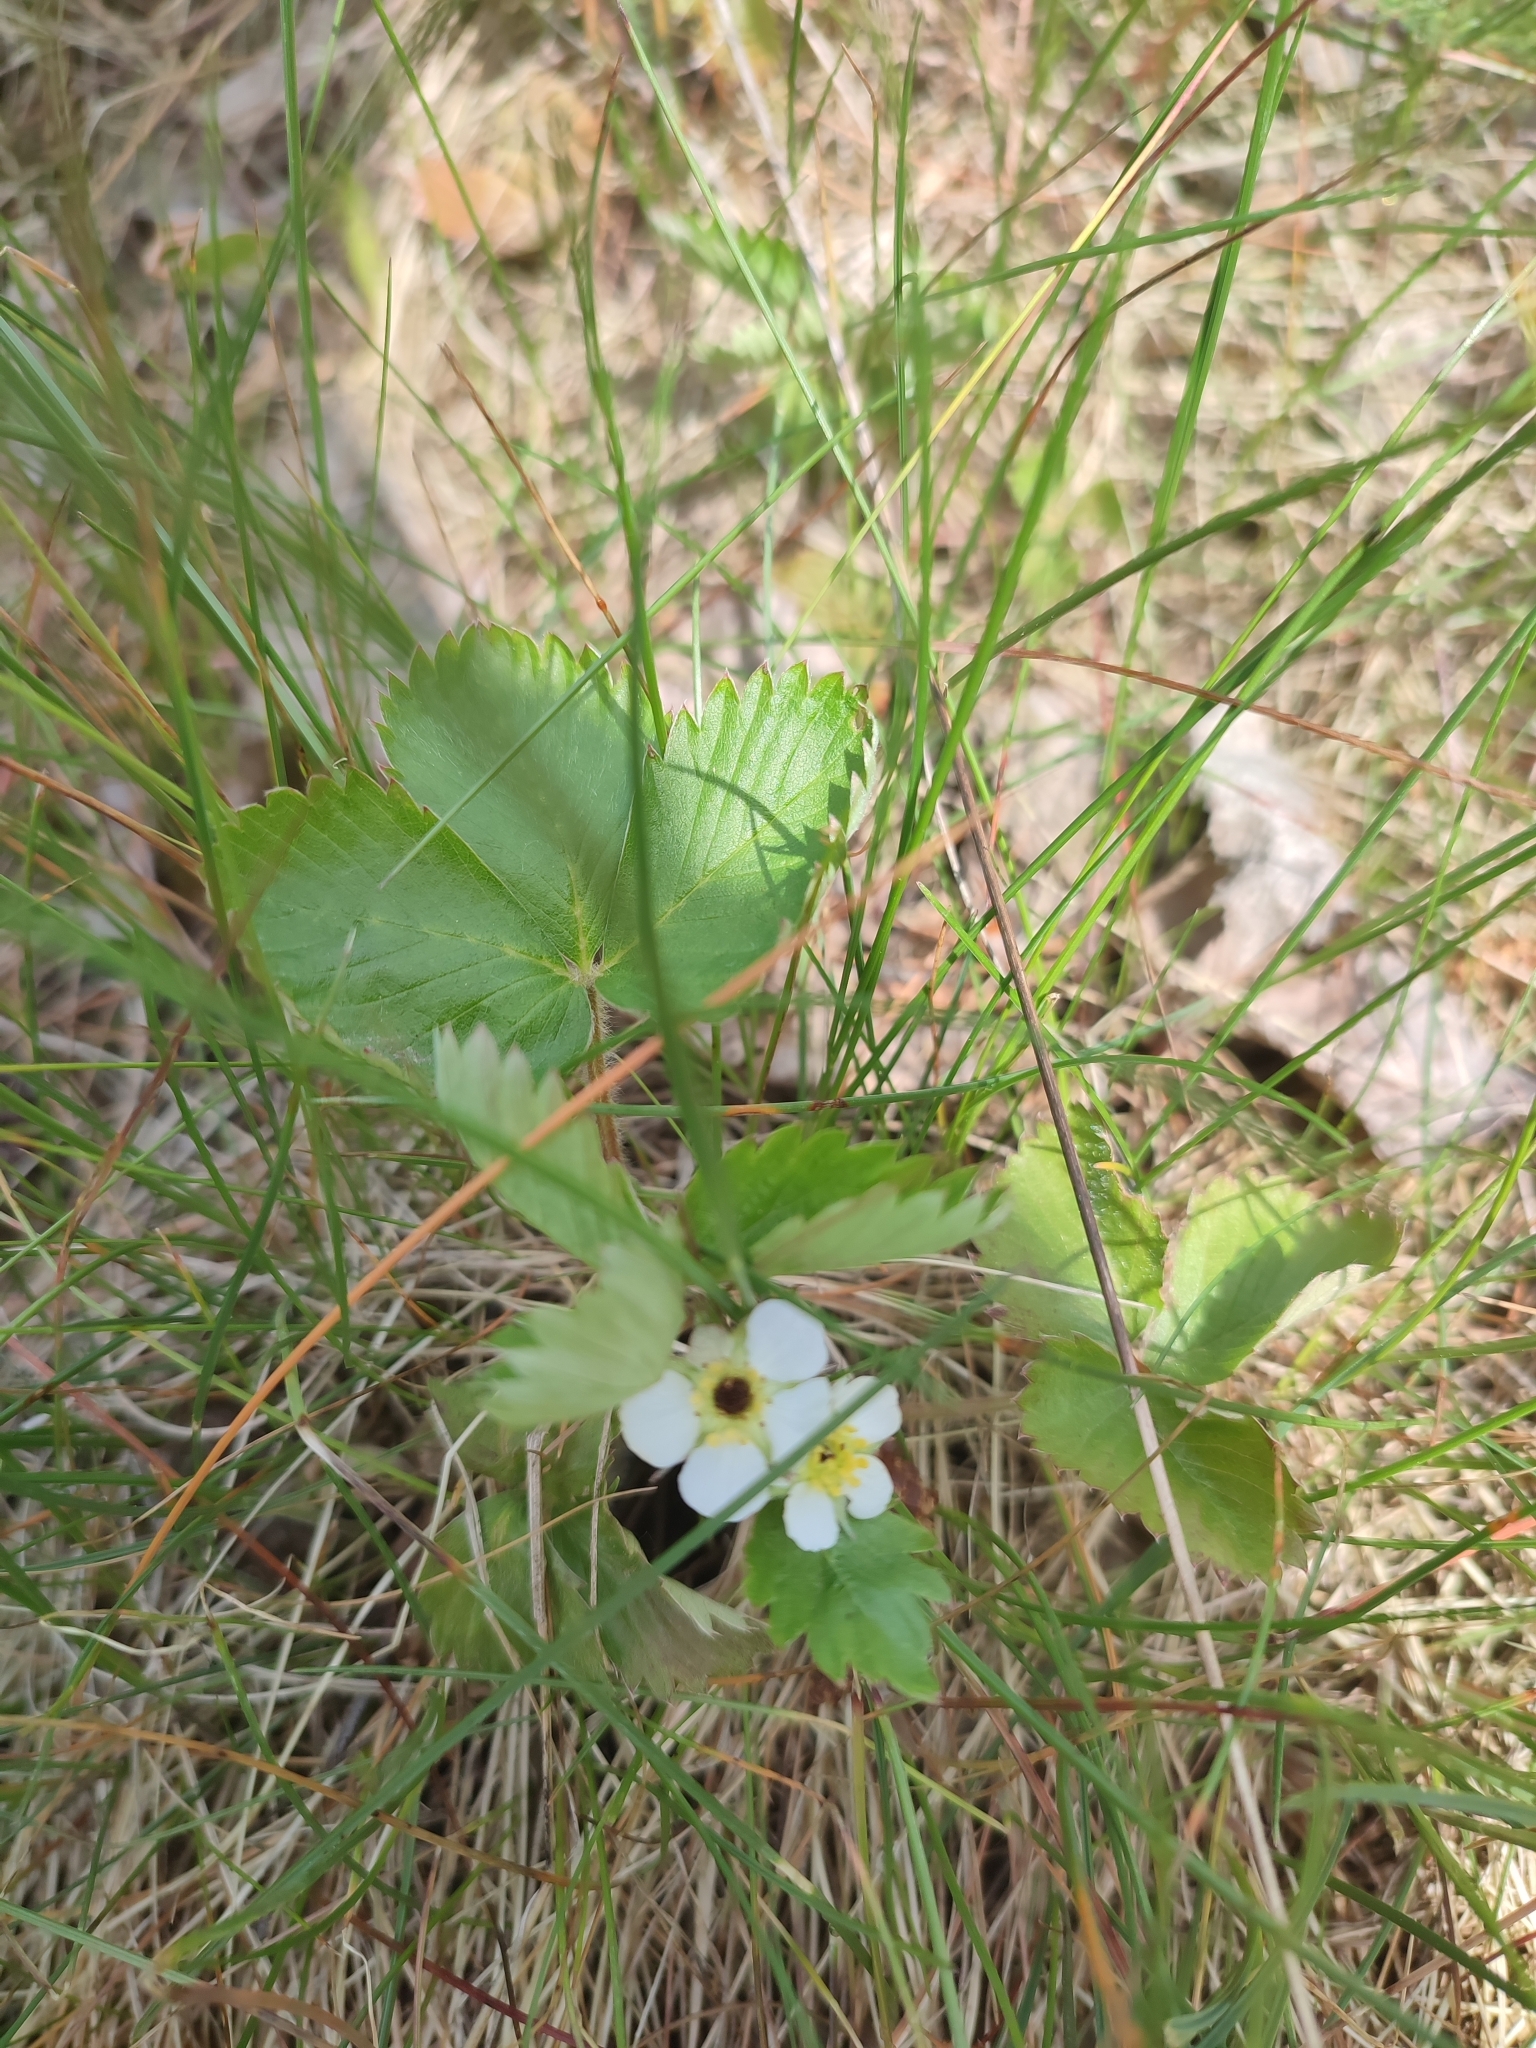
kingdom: Plantae
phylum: Tracheophyta
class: Magnoliopsida
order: Rosales
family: Rosaceae
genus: Fragaria
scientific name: Fragaria vesca
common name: Wild strawberry
